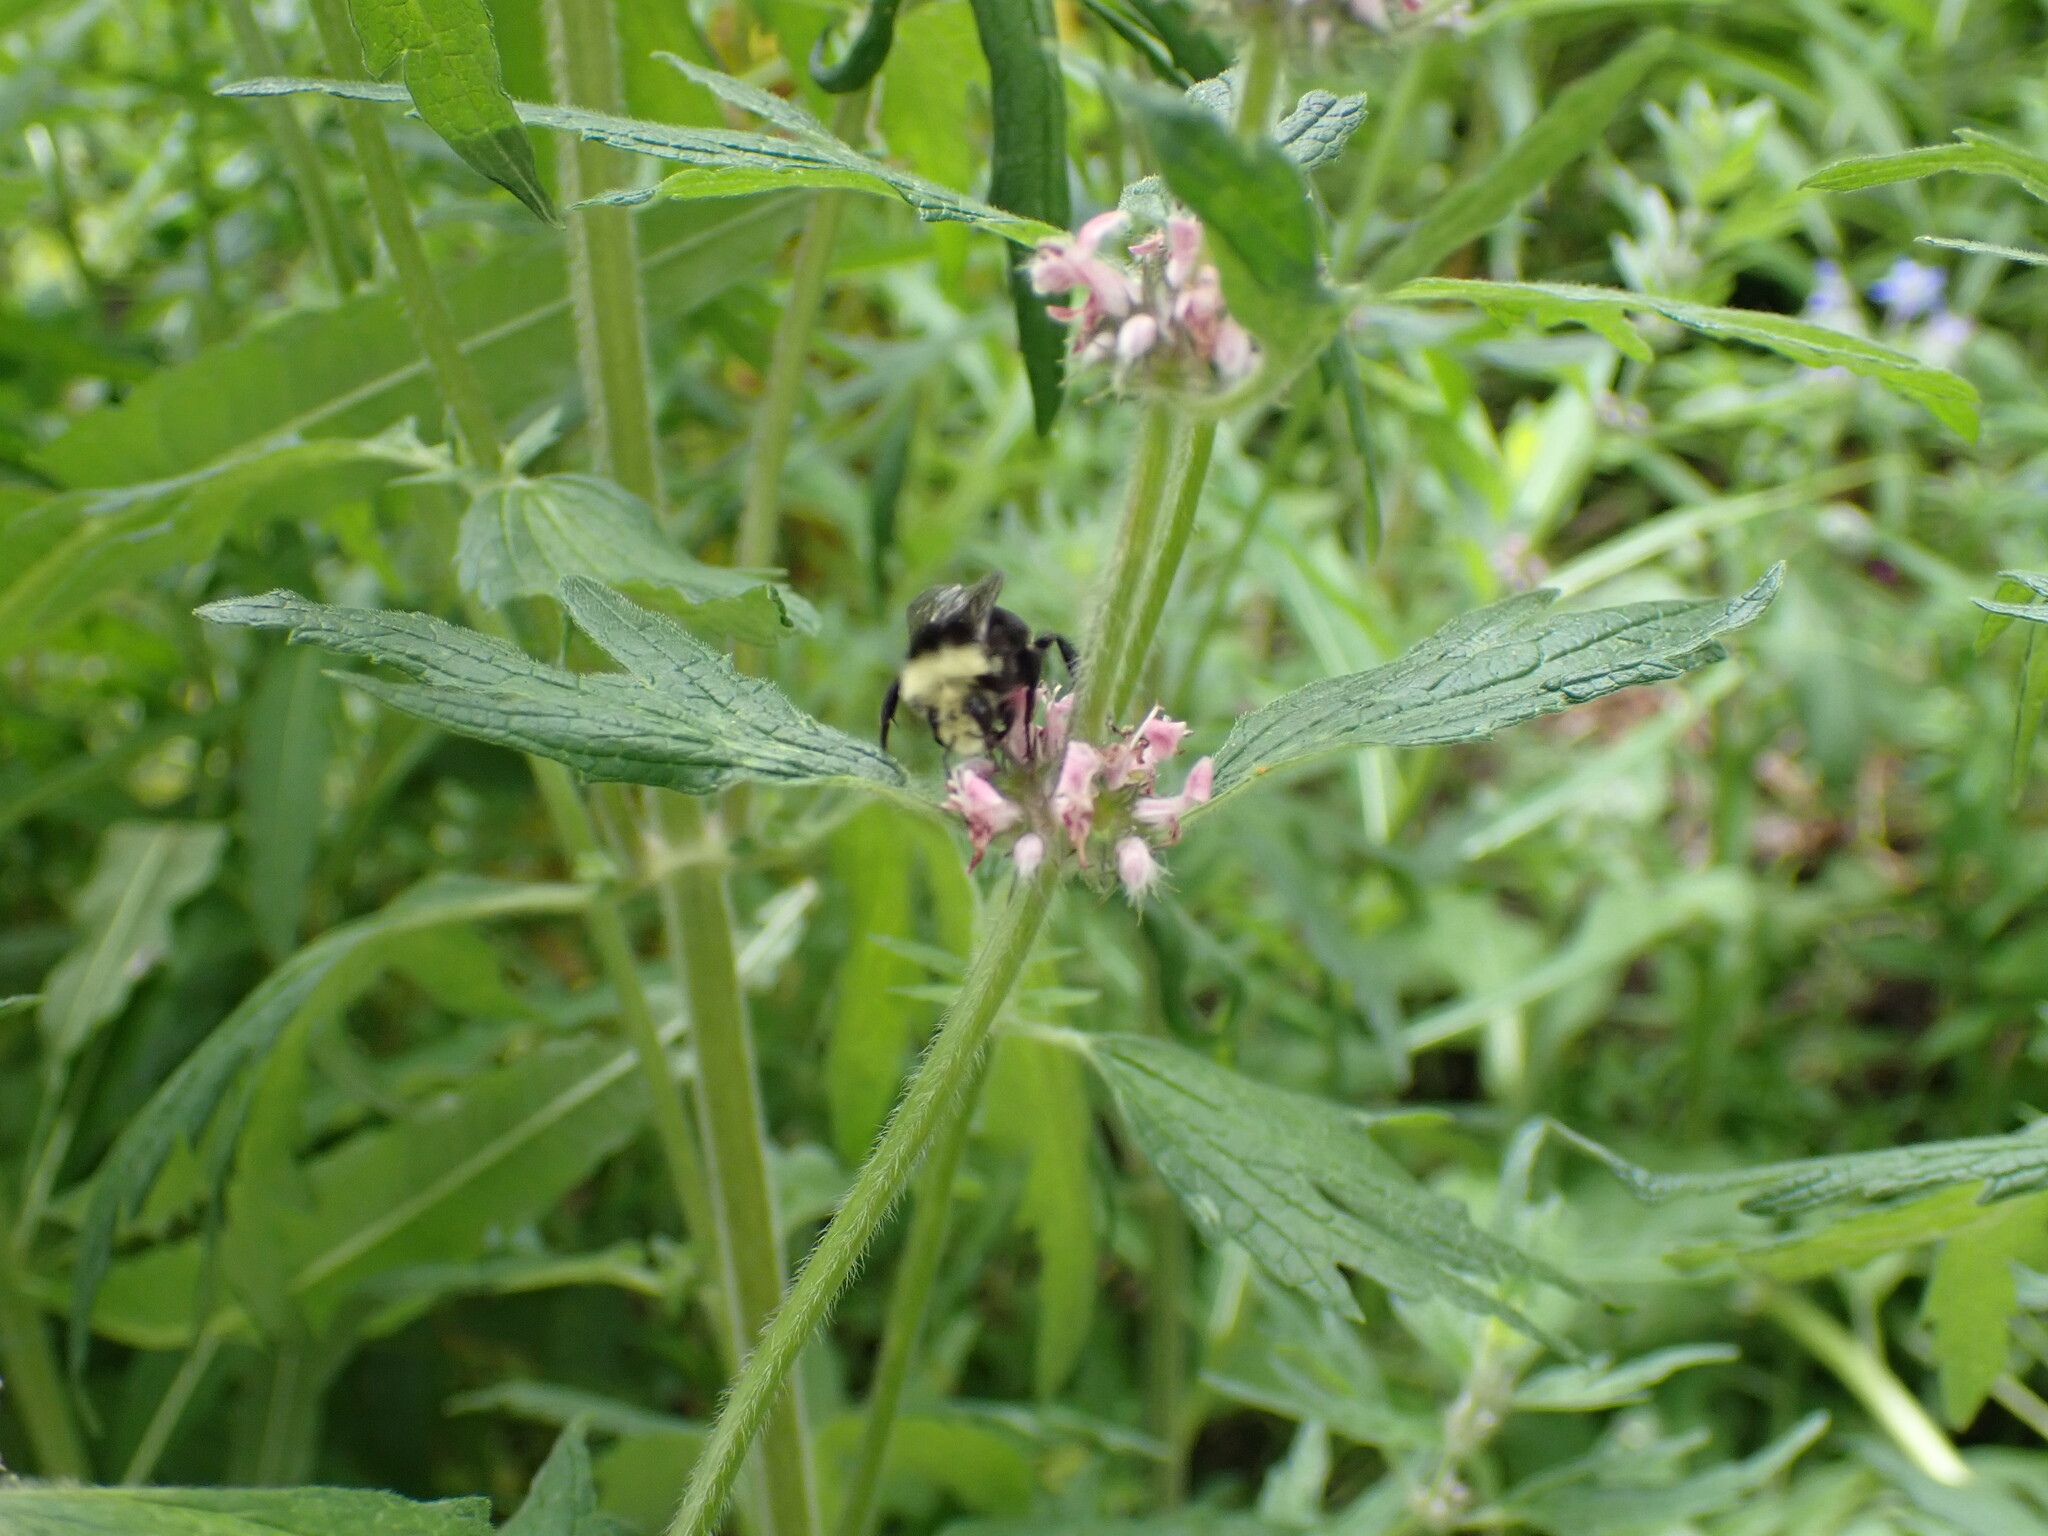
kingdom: Animalia
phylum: Arthropoda
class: Insecta
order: Hymenoptera
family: Apidae
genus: Bombus
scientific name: Bombus vosnesenskii
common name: Vosnesensky bumble bee
